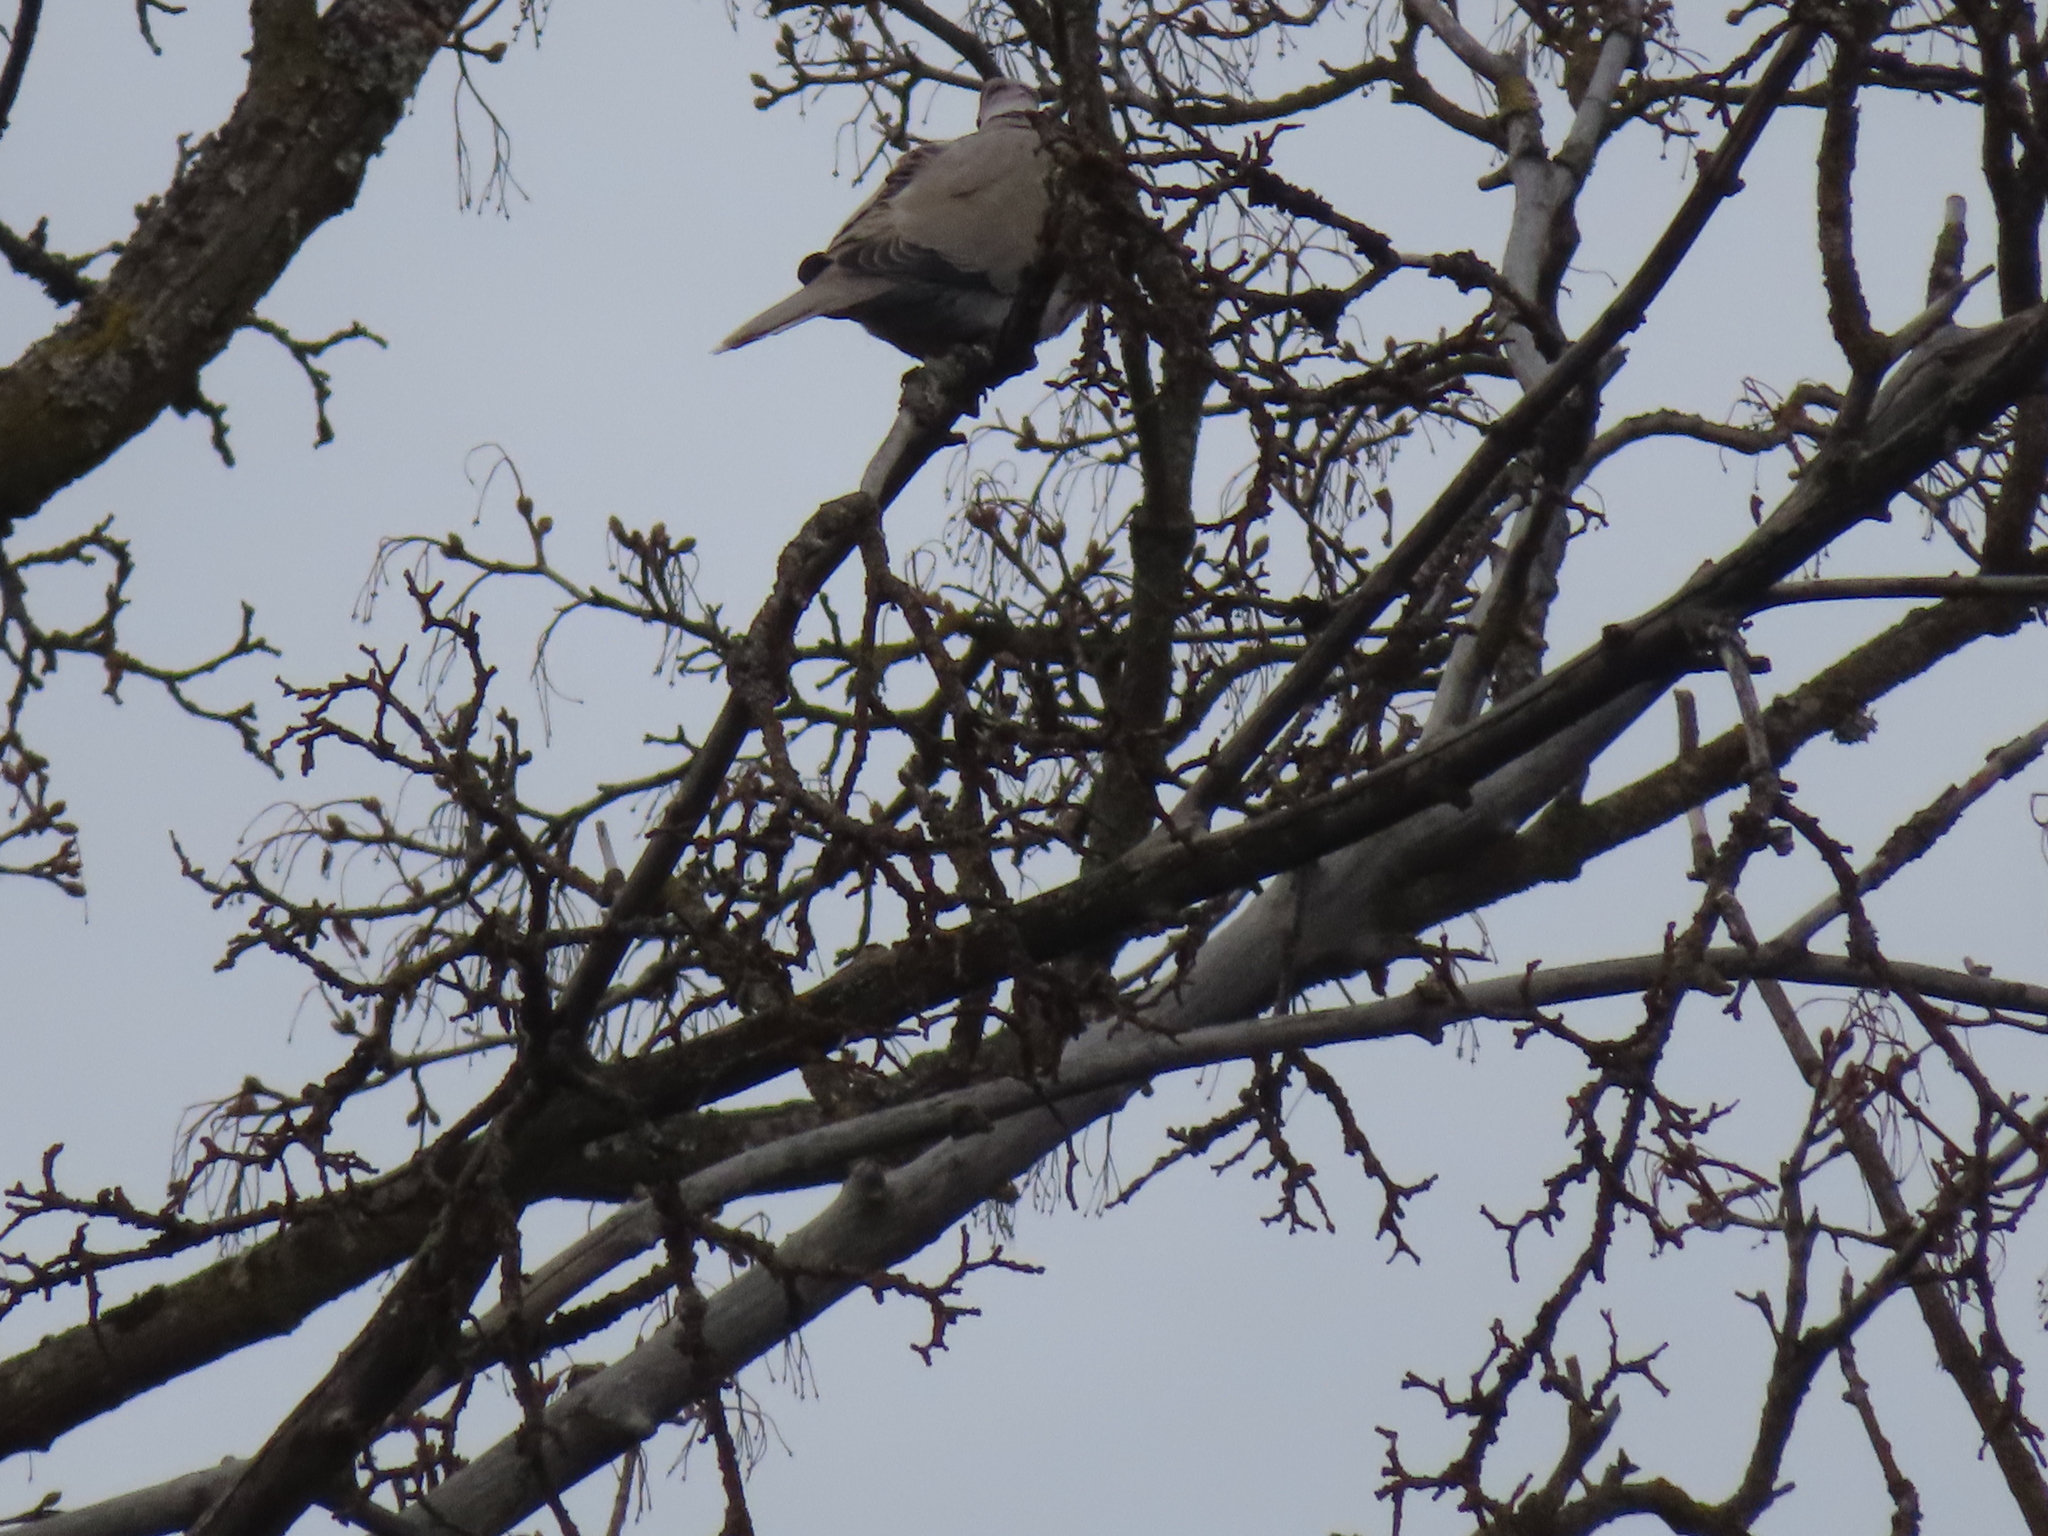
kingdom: Animalia
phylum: Chordata
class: Aves
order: Columbiformes
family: Columbidae
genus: Streptopelia
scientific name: Streptopelia decaocto
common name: Eurasian collared dove
